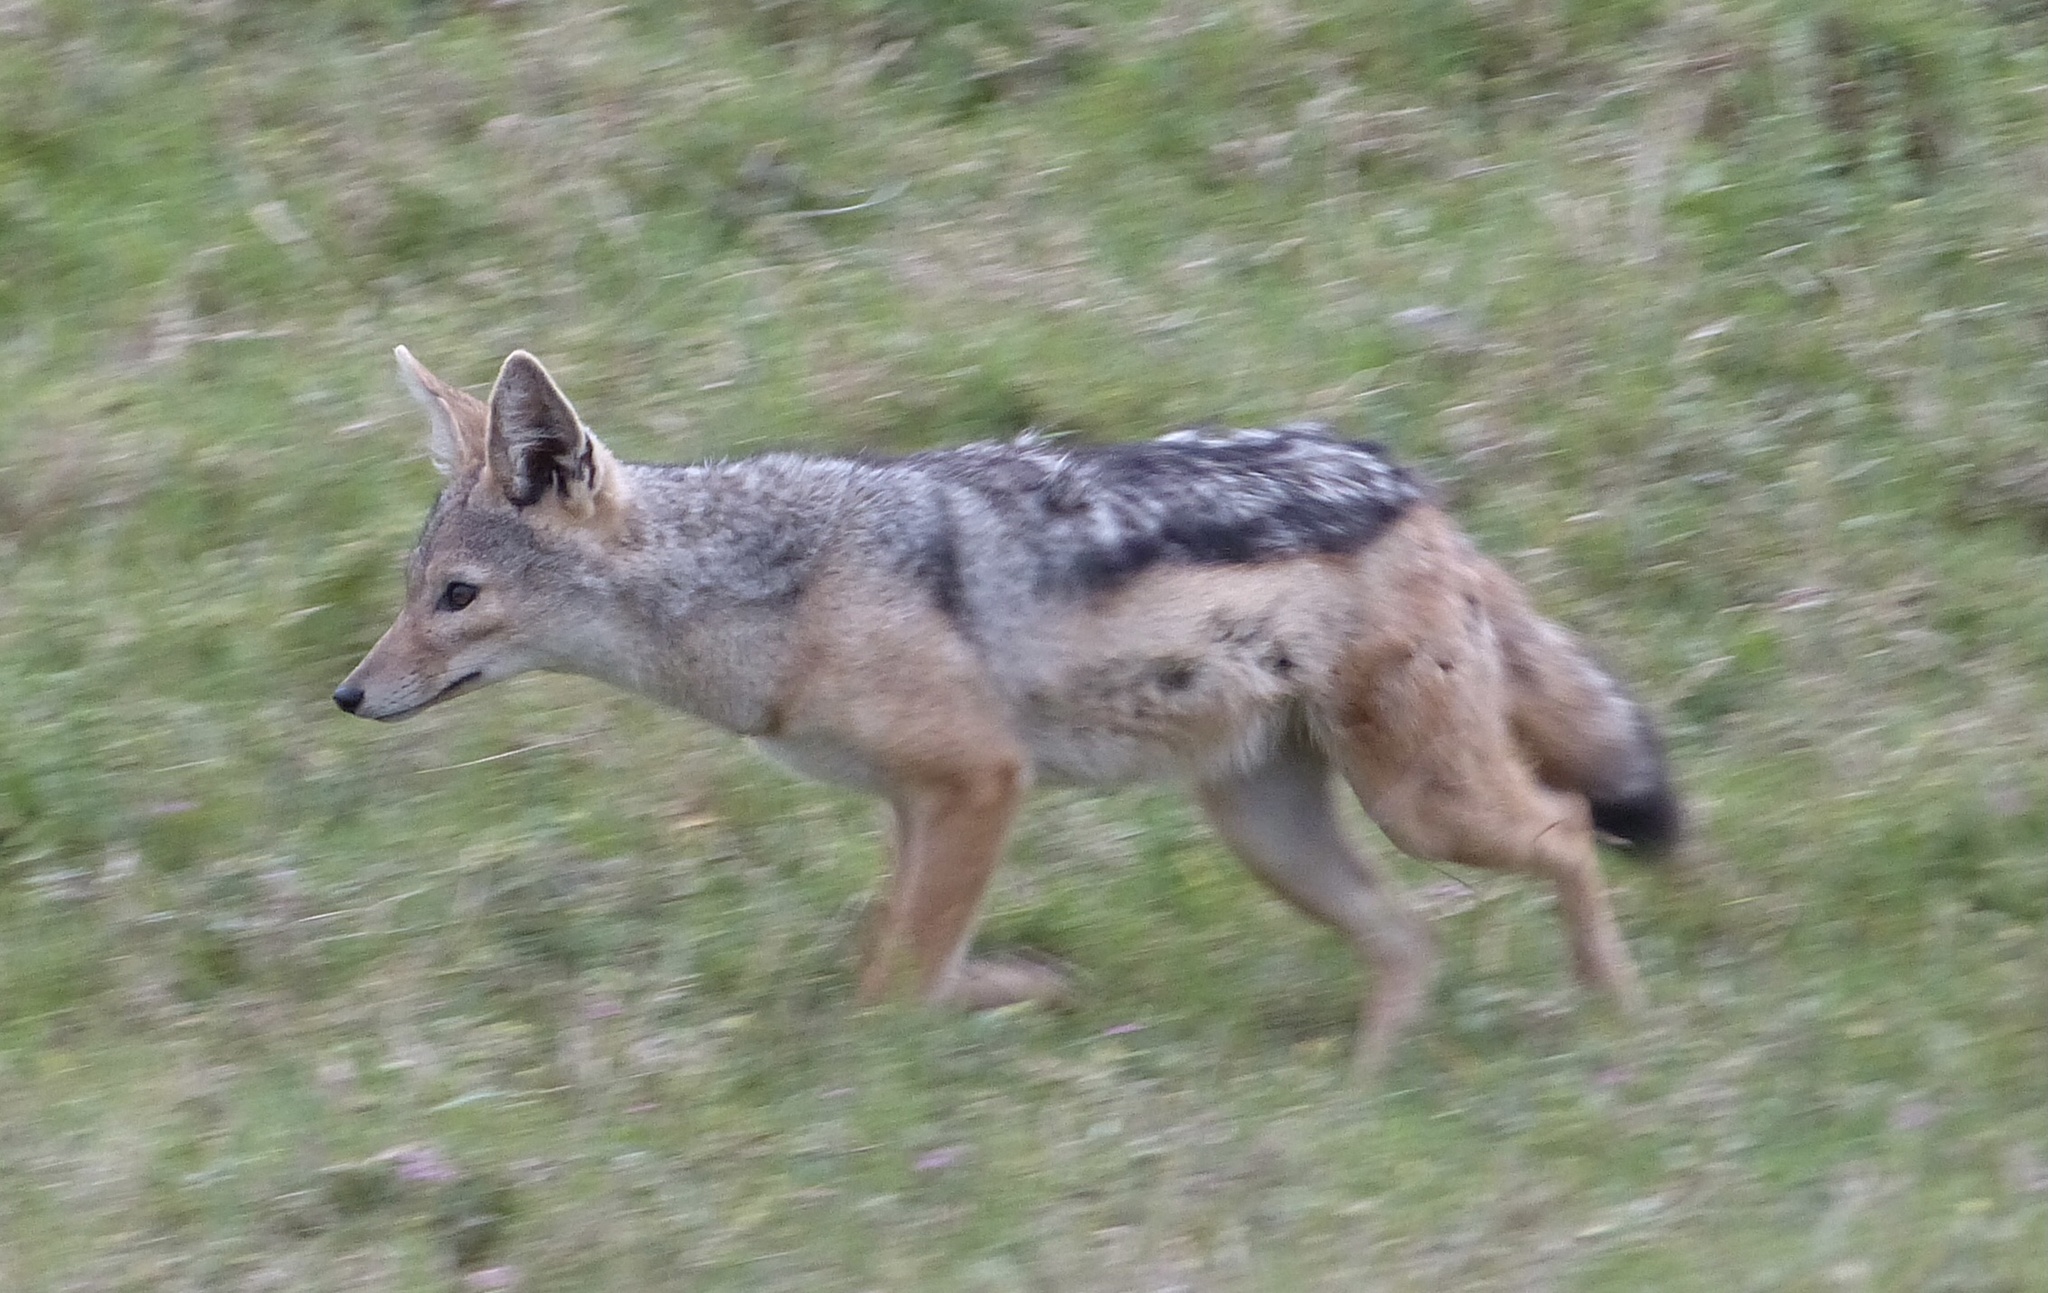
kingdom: Animalia
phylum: Chordata
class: Mammalia
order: Carnivora
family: Canidae
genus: Lupulella
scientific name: Lupulella
